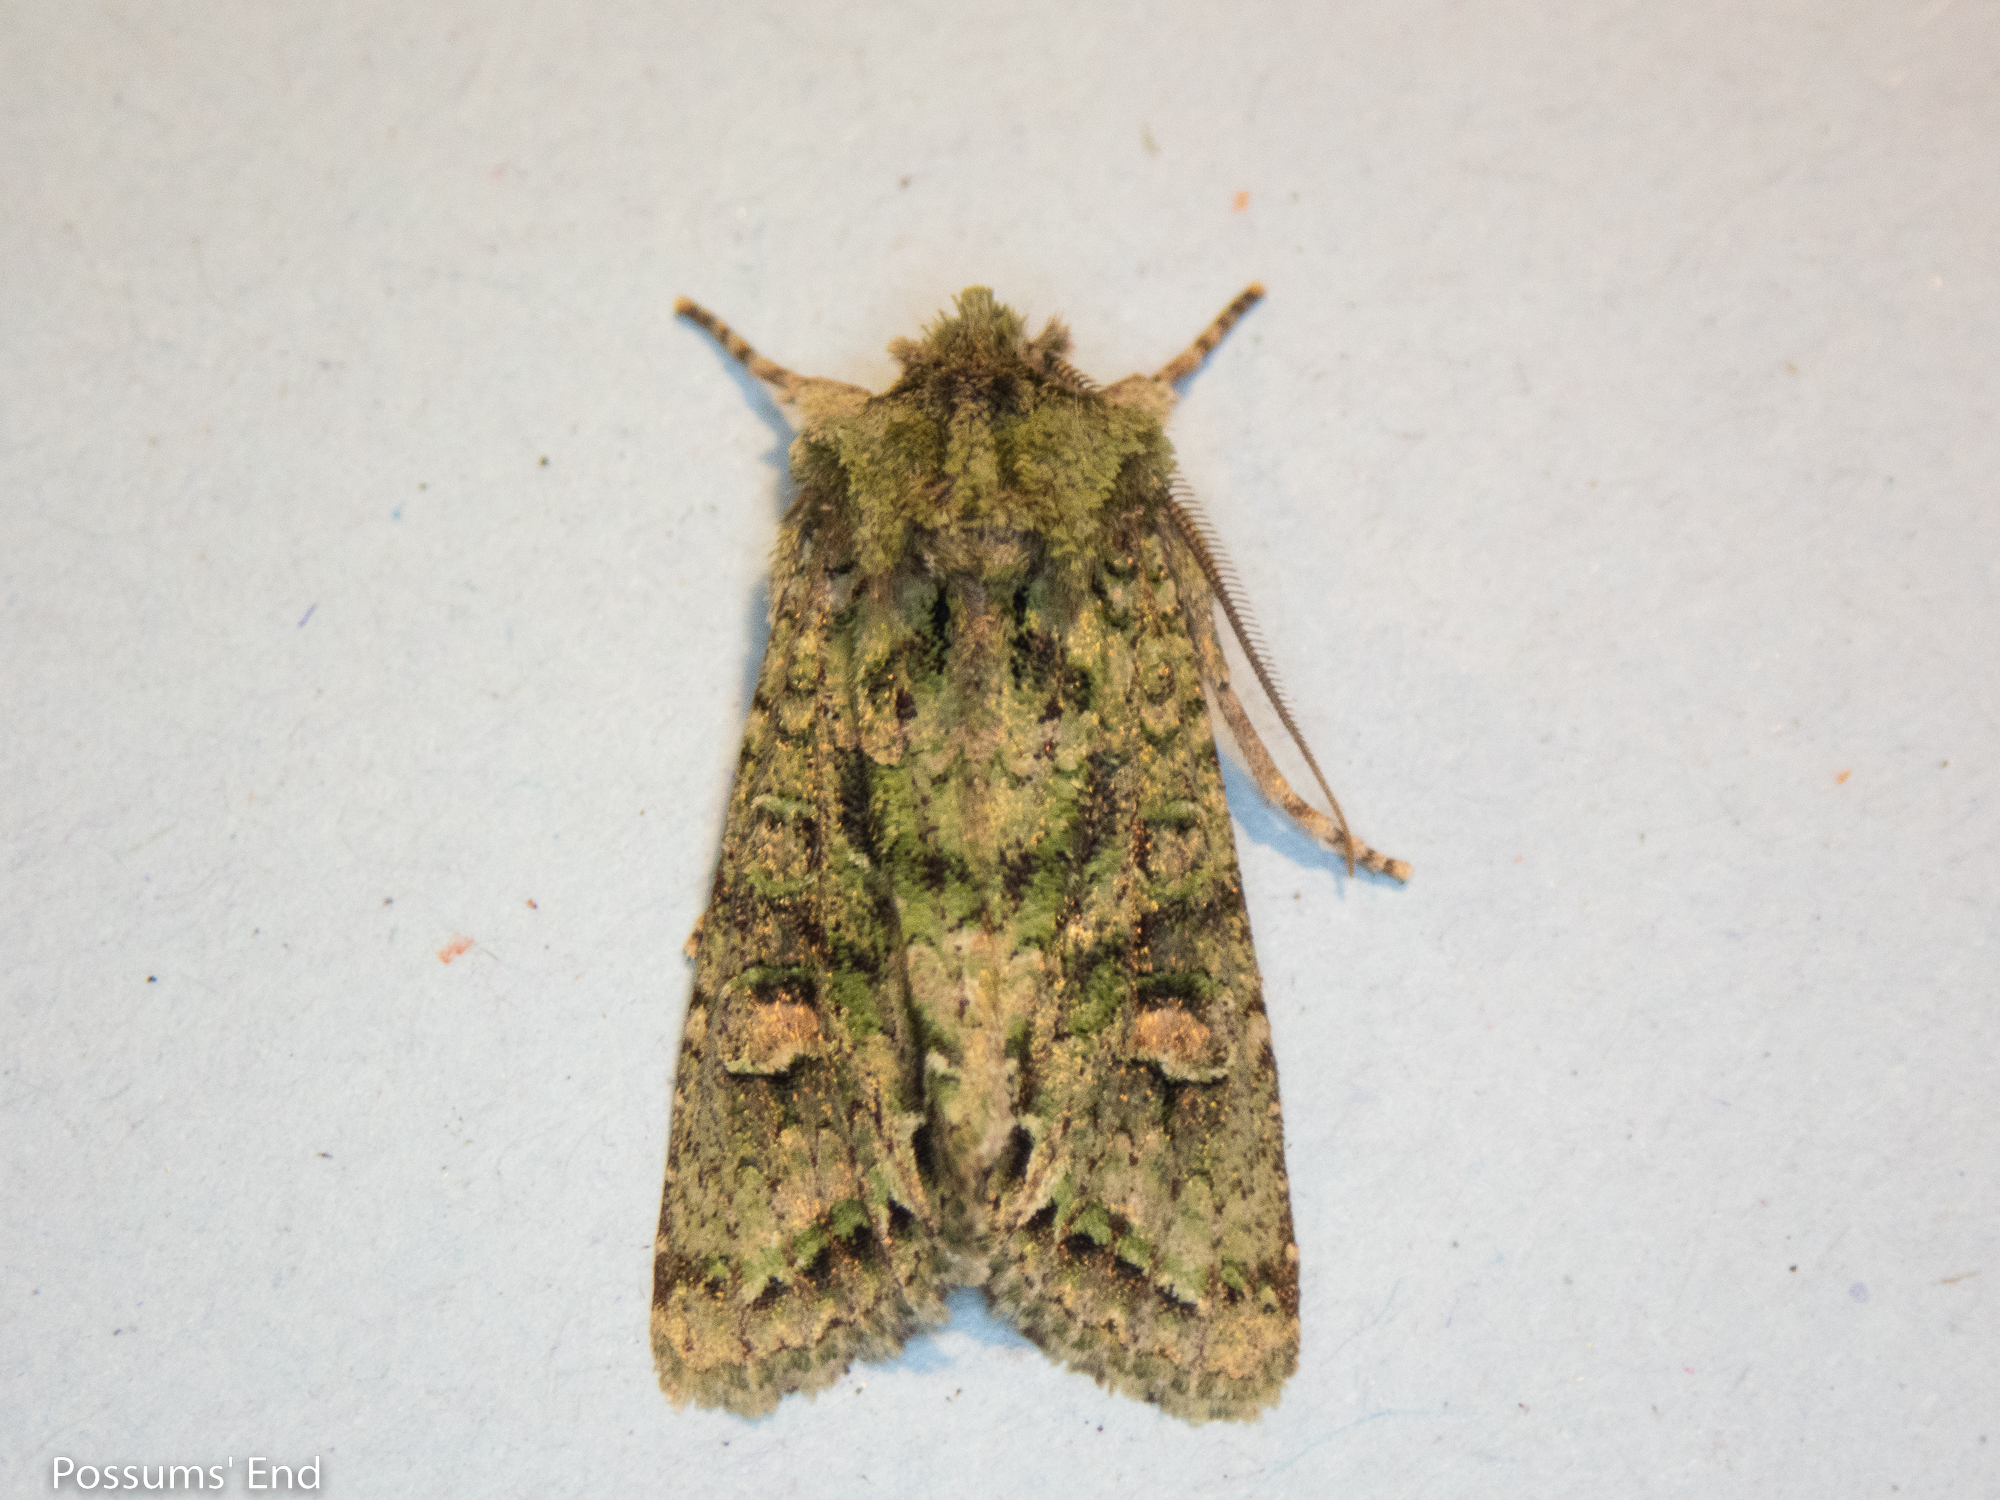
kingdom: Animalia
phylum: Arthropoda
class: Insecta
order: Lepidoptera
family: Noctuidae
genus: Ichneutica
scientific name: Ichneutica
